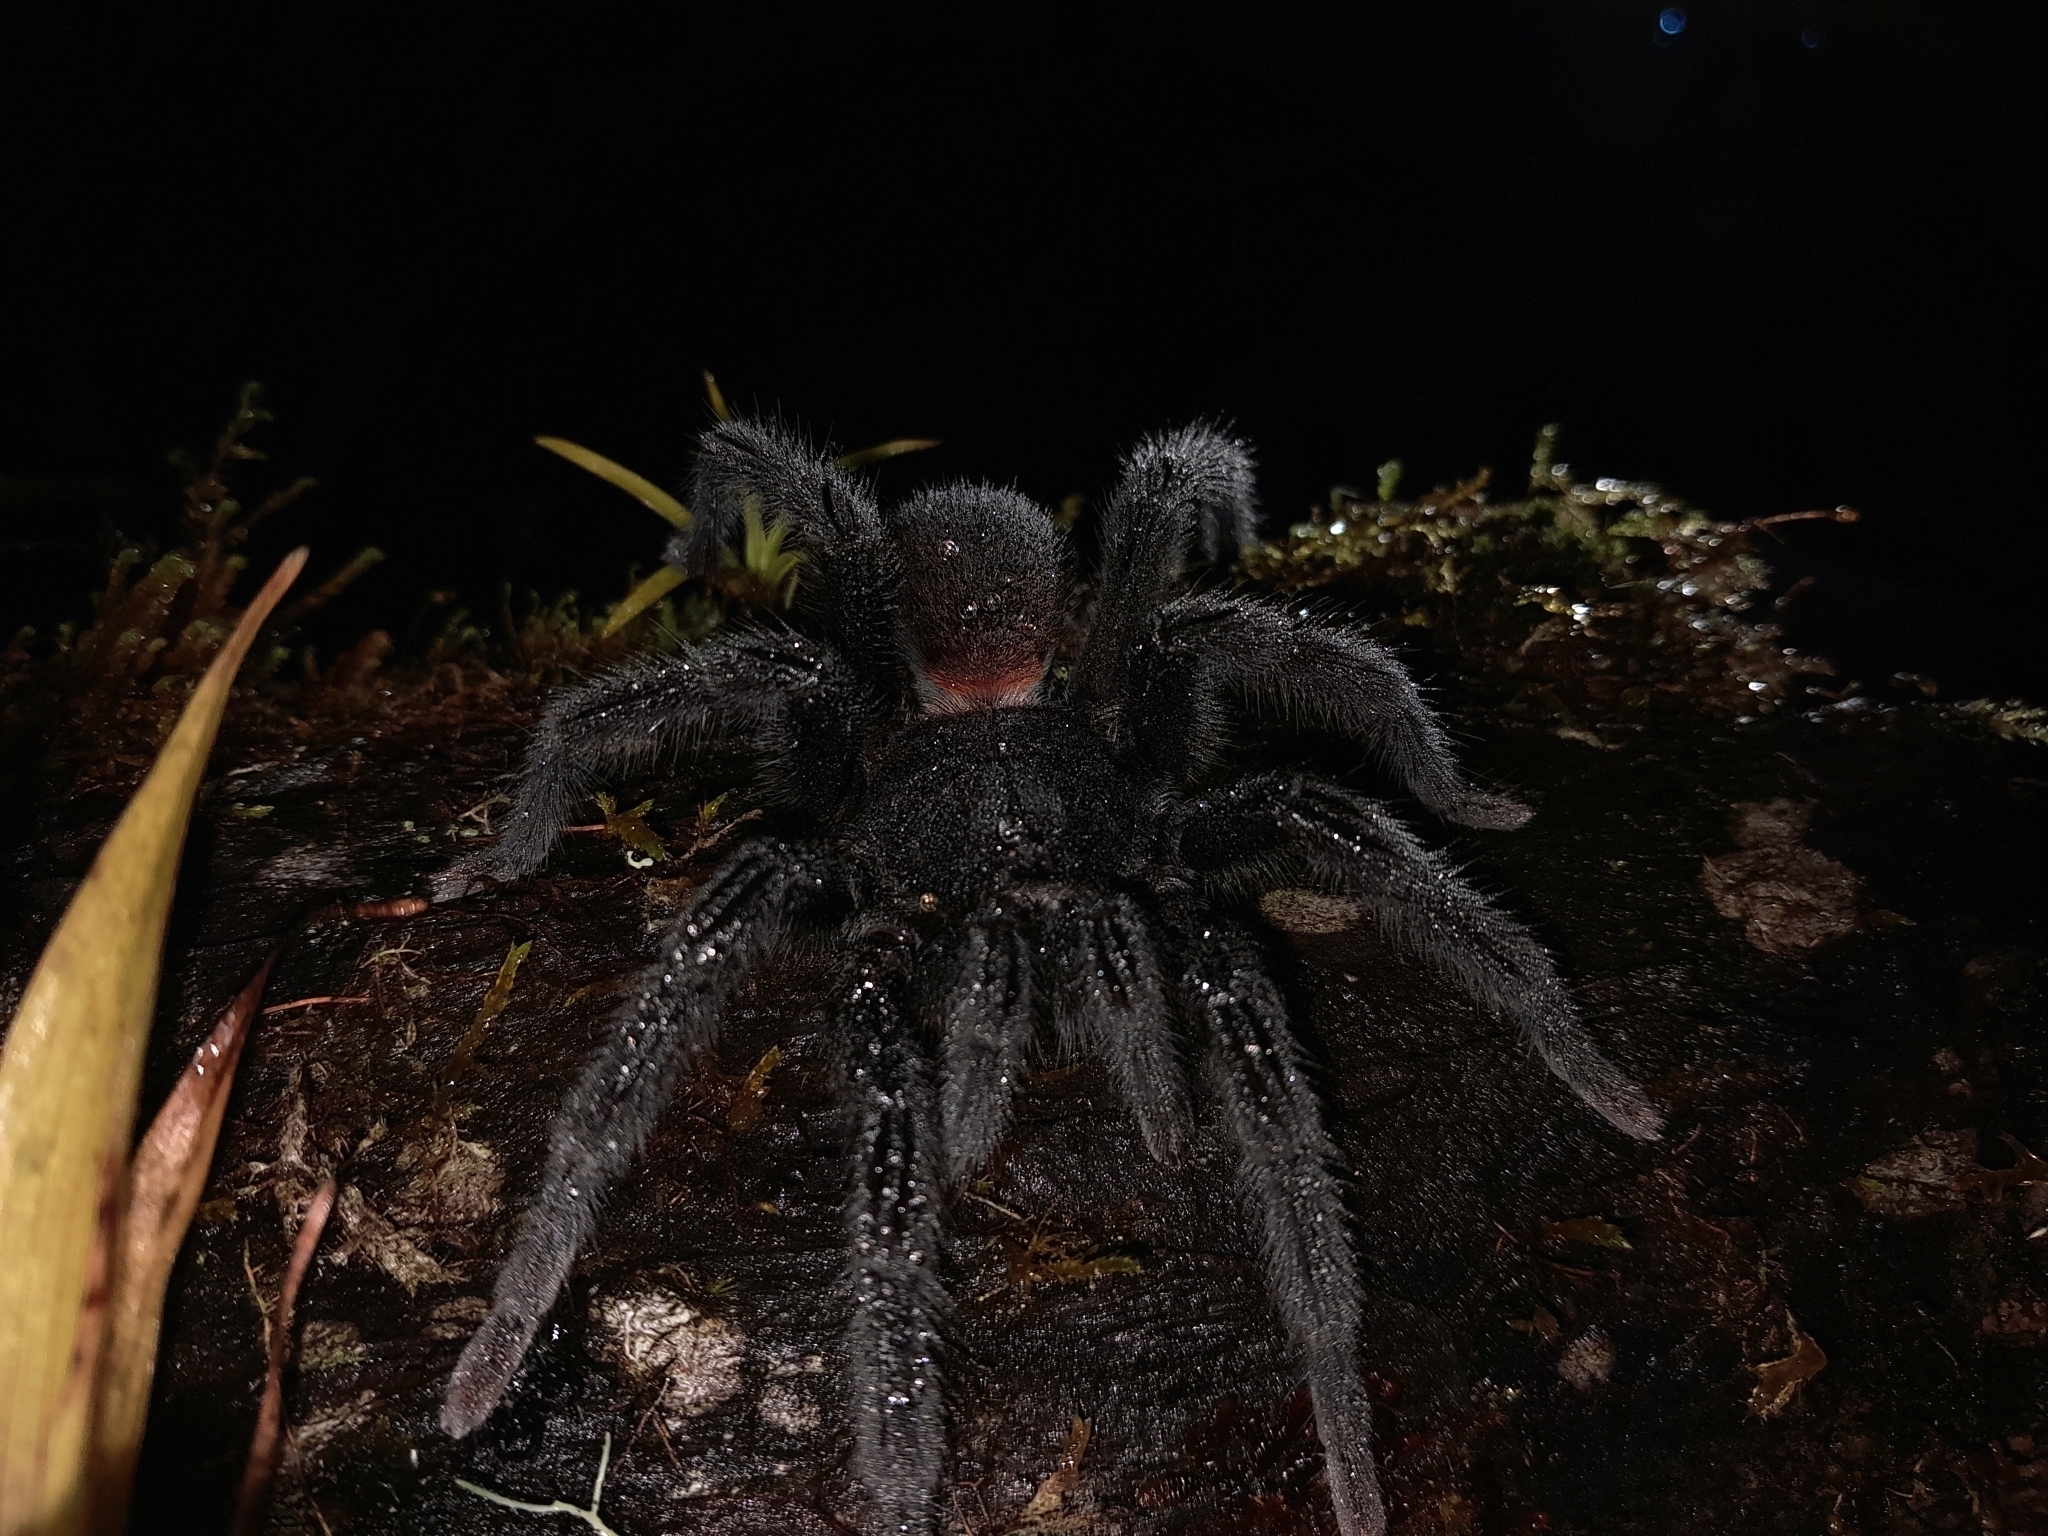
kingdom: Animalia
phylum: Arthropoda
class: Arachnida
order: Araneae
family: Theraphosidae
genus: Kankuamo
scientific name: Kankuamo marquezi
